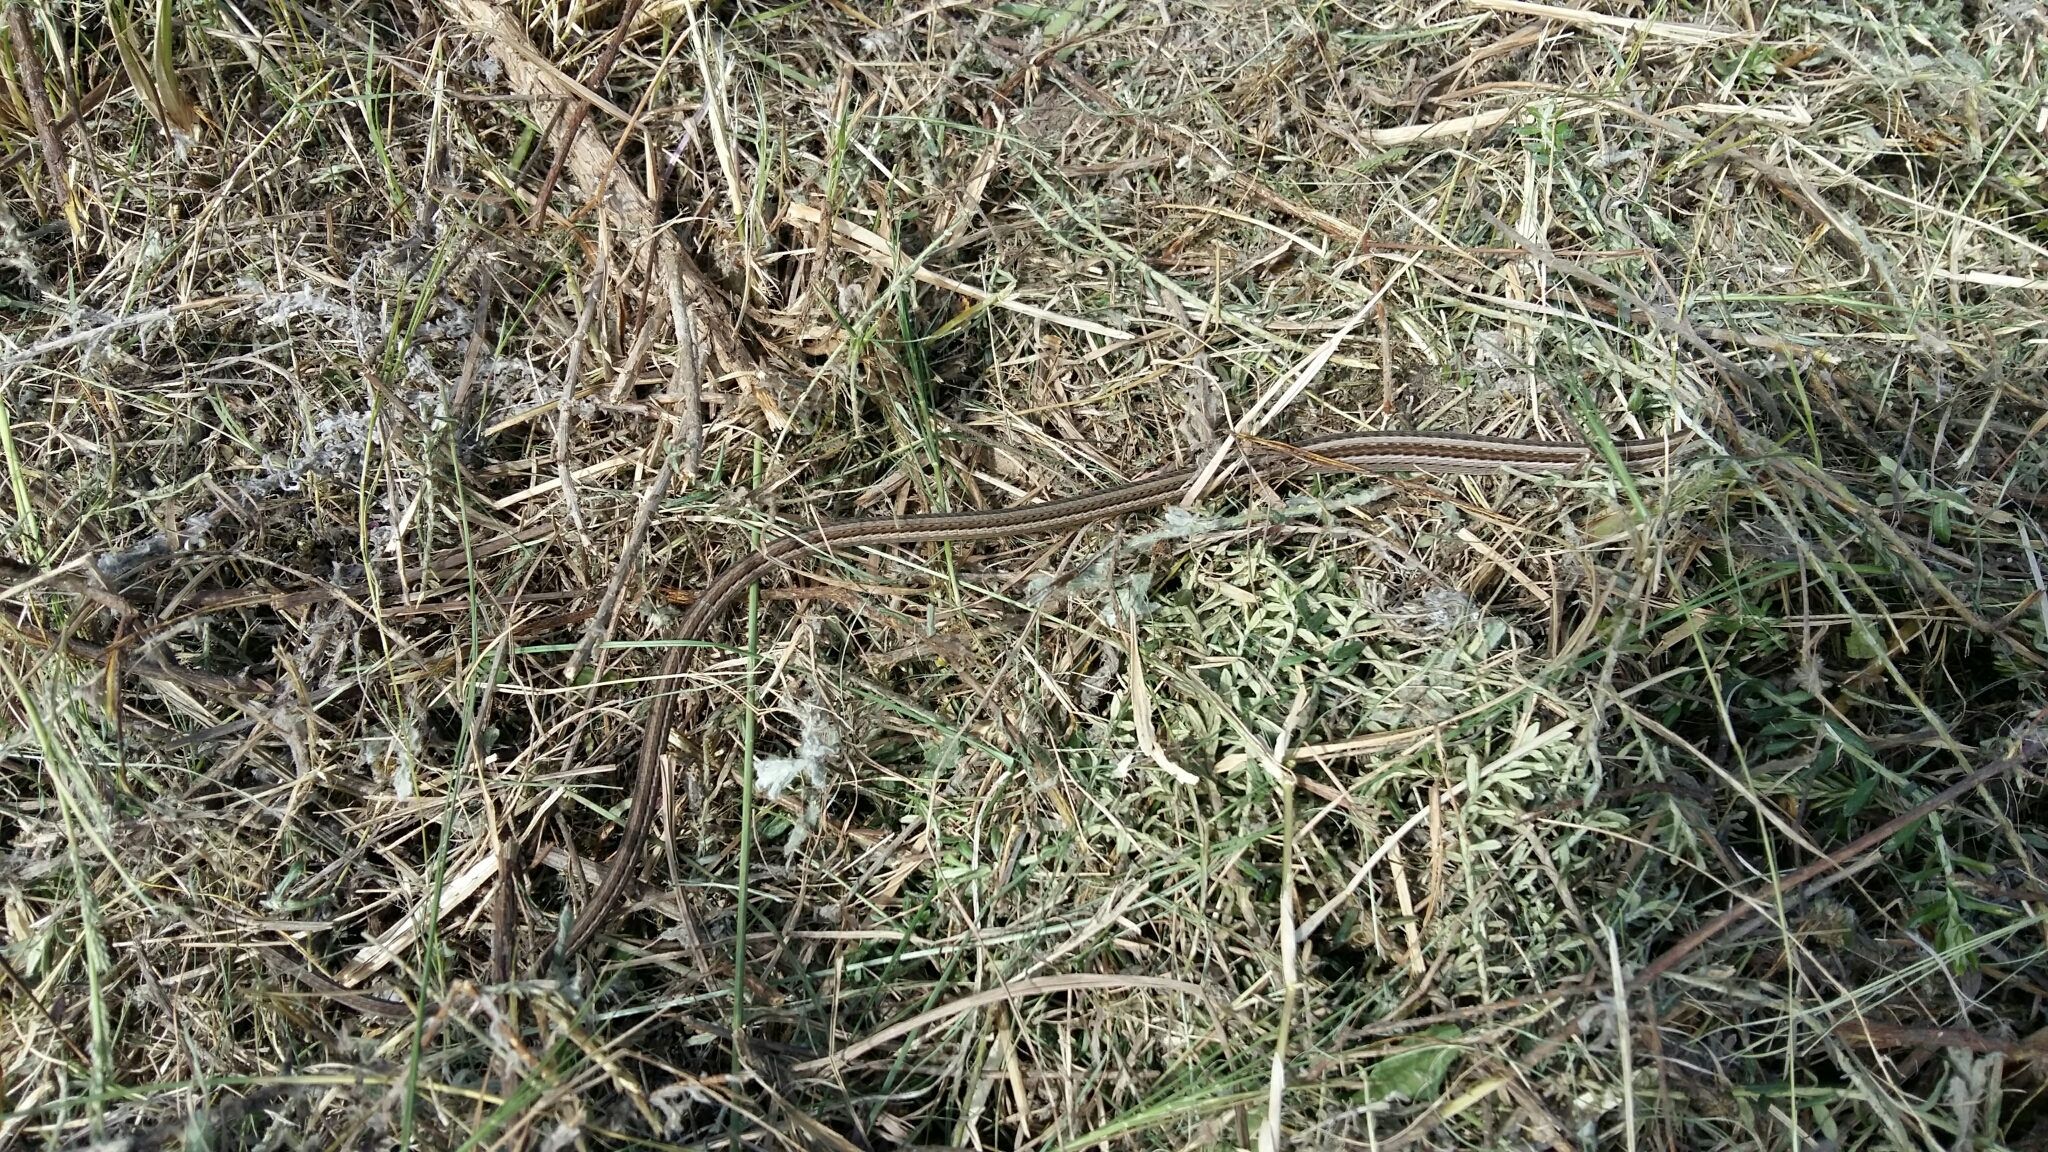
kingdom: Animalia
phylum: Chordata
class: Squamata
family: Cordylidae
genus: Chamaesaura
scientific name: Chamaesaura anguina
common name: Cape snake lizard
